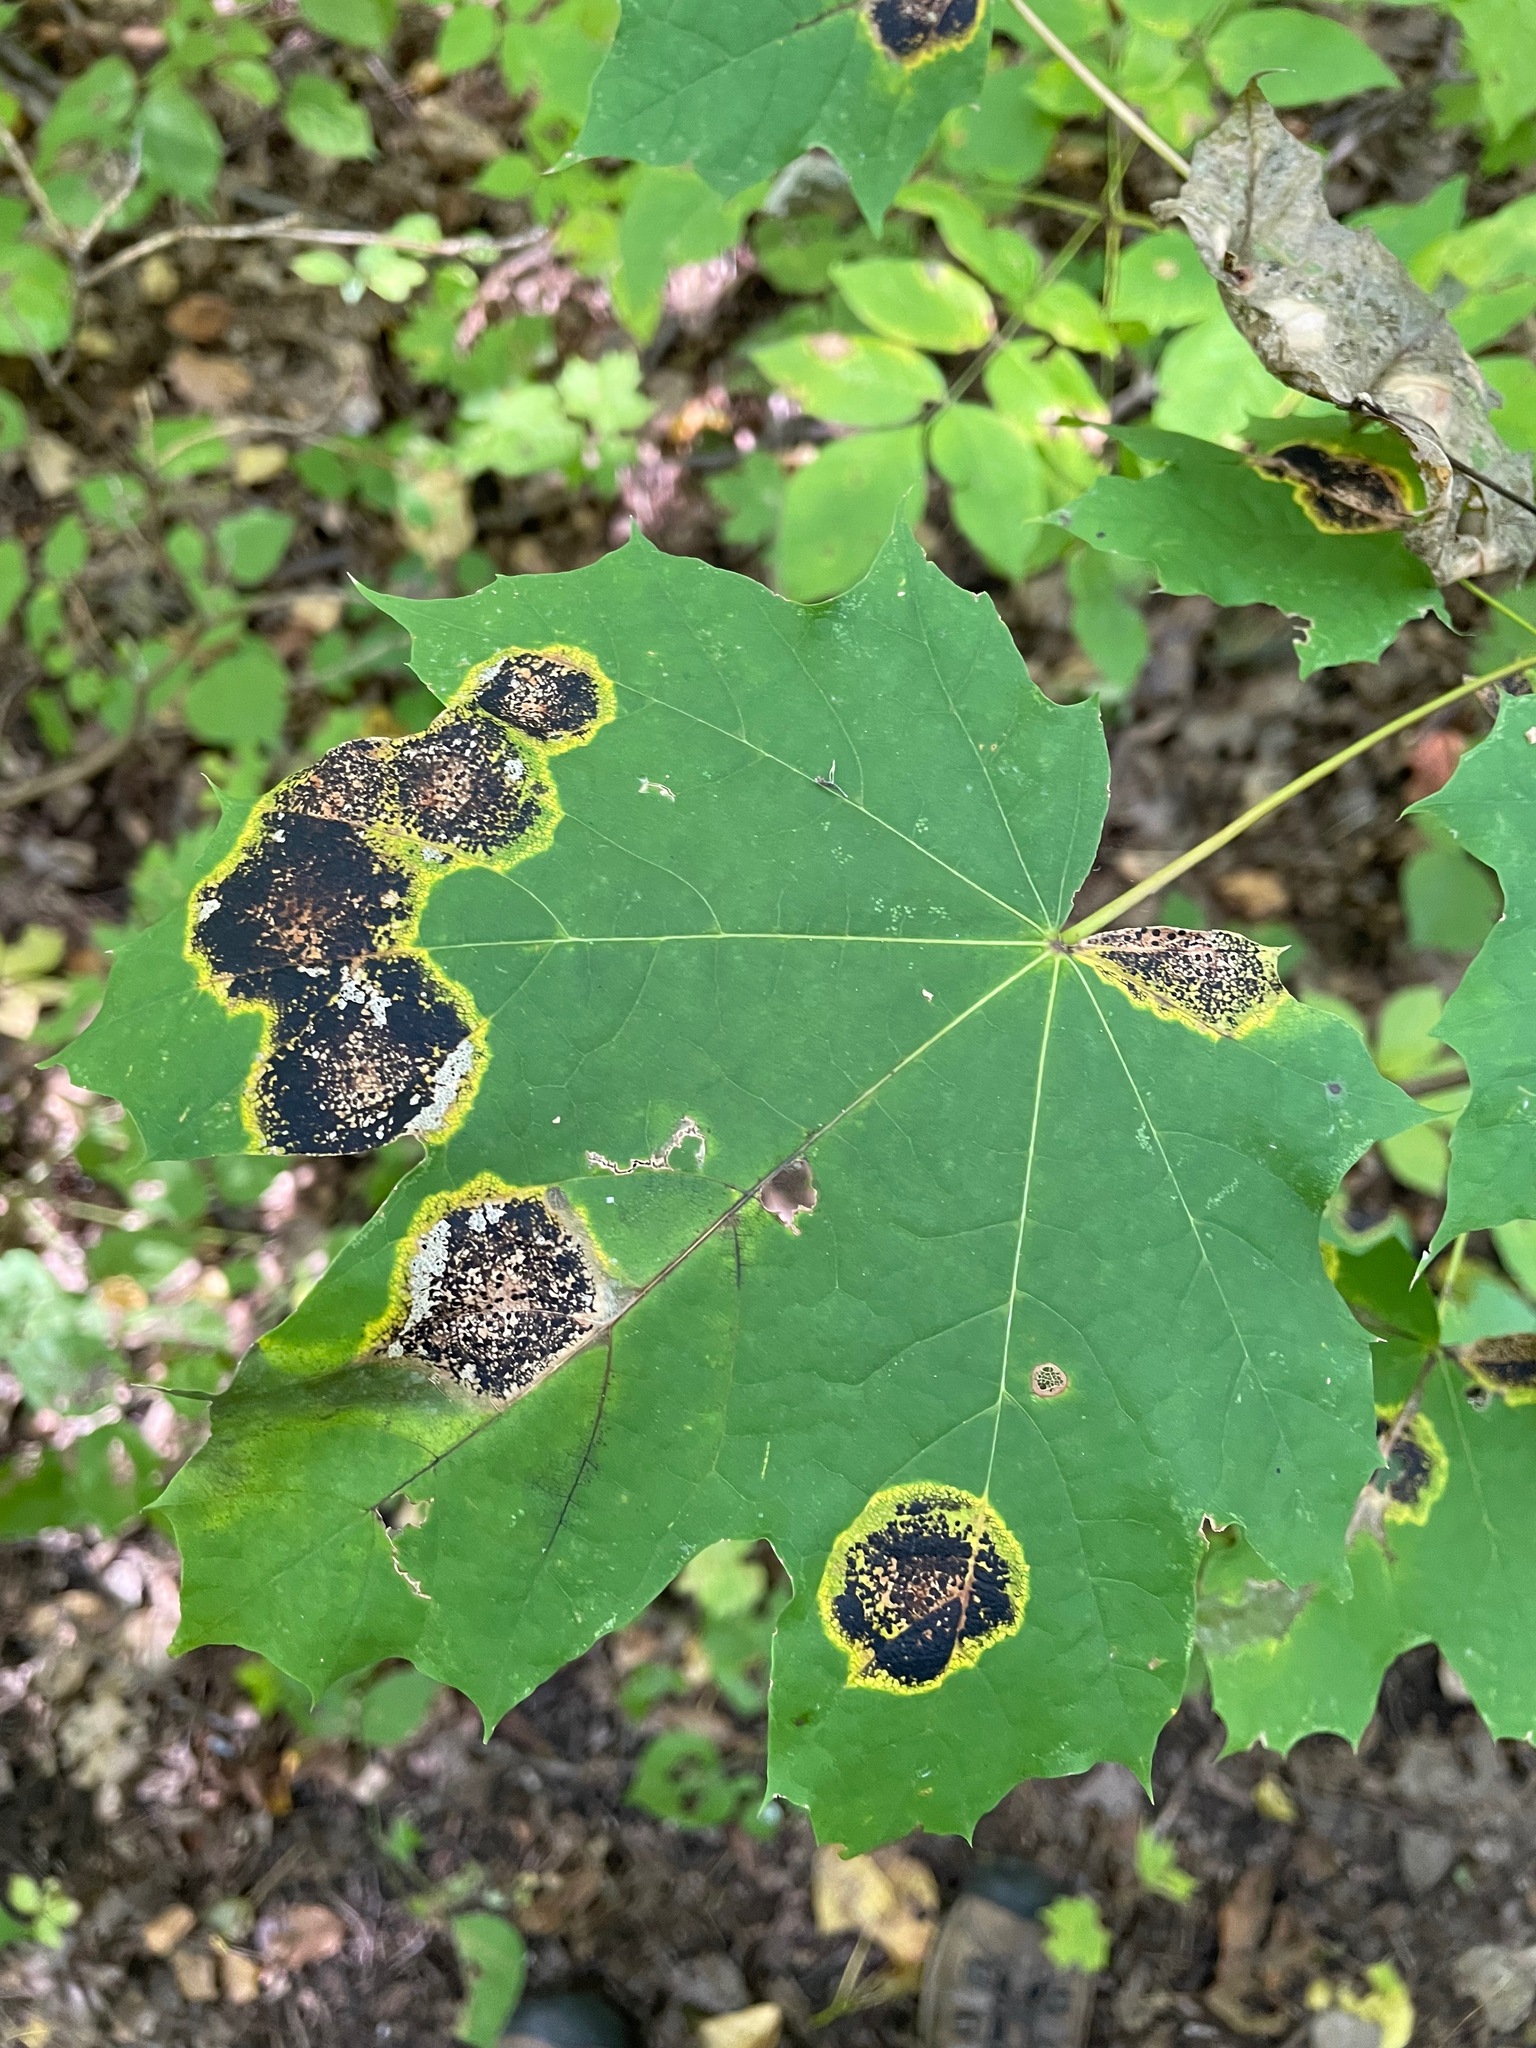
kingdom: Fungi
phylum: Ascomycota
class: Leotiomycetes
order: Rhytismatales
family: Rhytismataceae
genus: Rhytisma
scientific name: Rhytisma acerinum
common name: European tar spot
